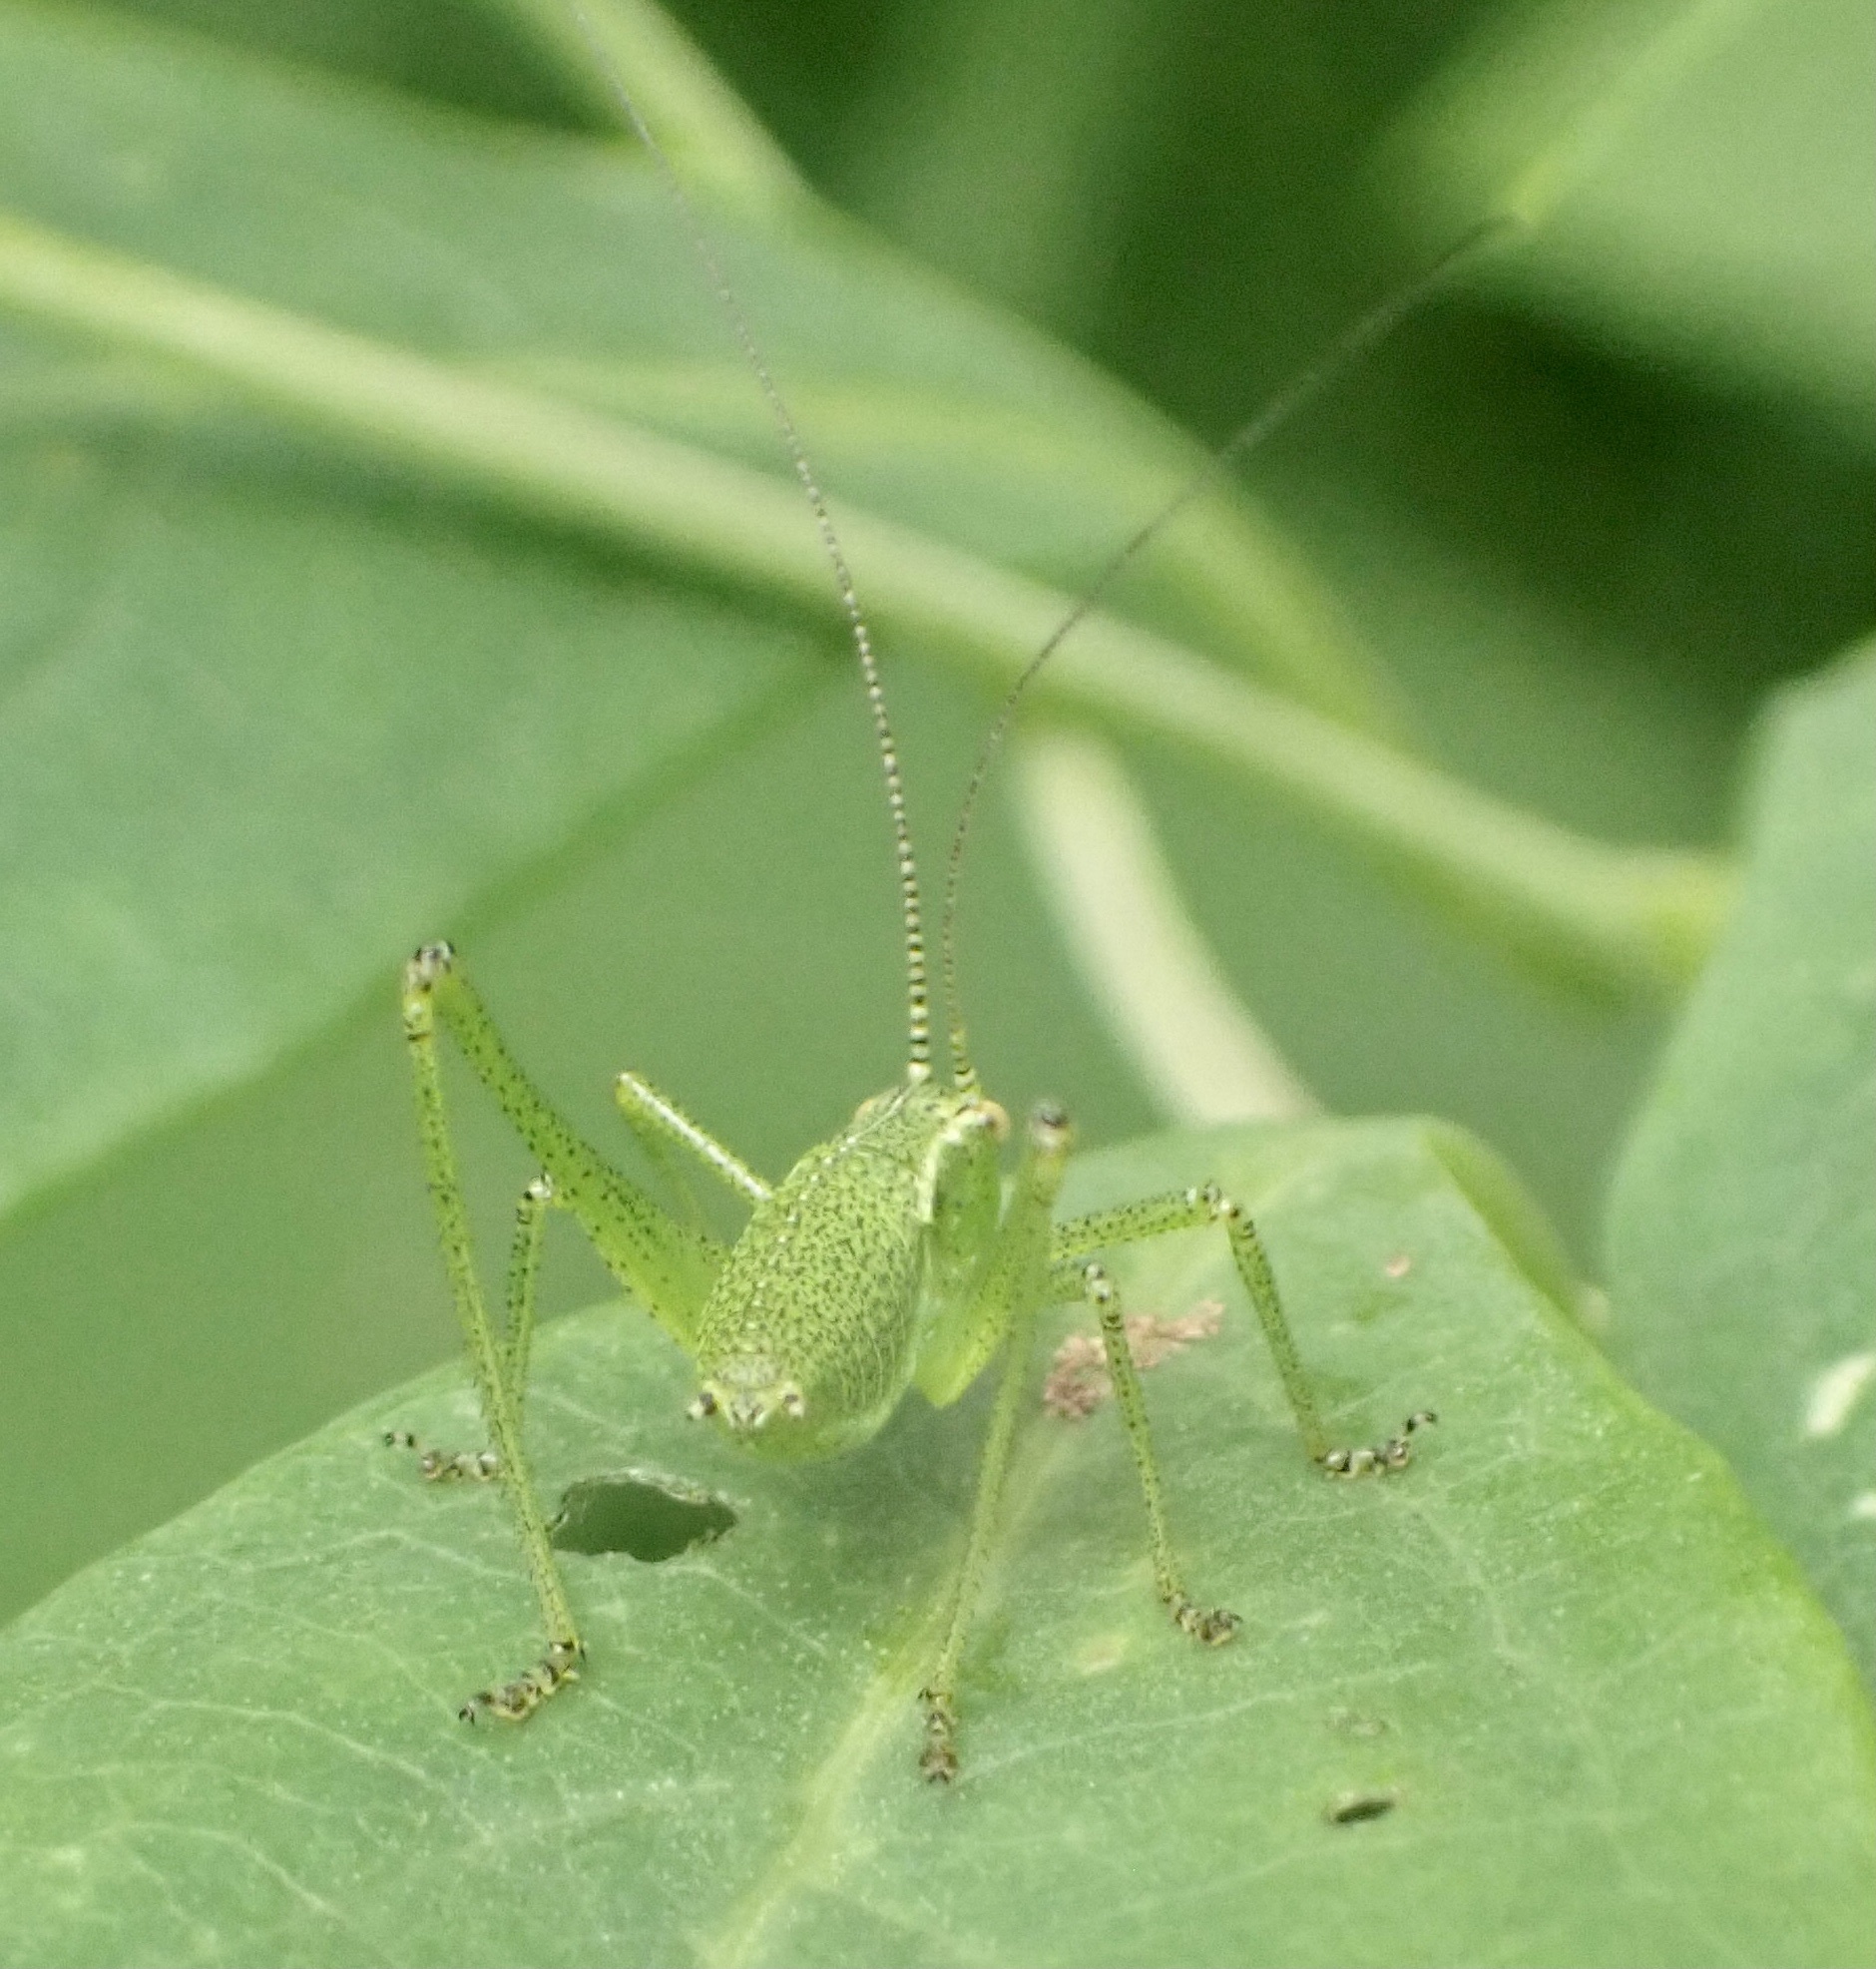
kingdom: Animalia
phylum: Arthropoda
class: Insecta
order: Orthoptera
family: Tettigoniidae
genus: Leptophyes
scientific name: Leptophyes punctatissima
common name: Speckled bush-cricket
